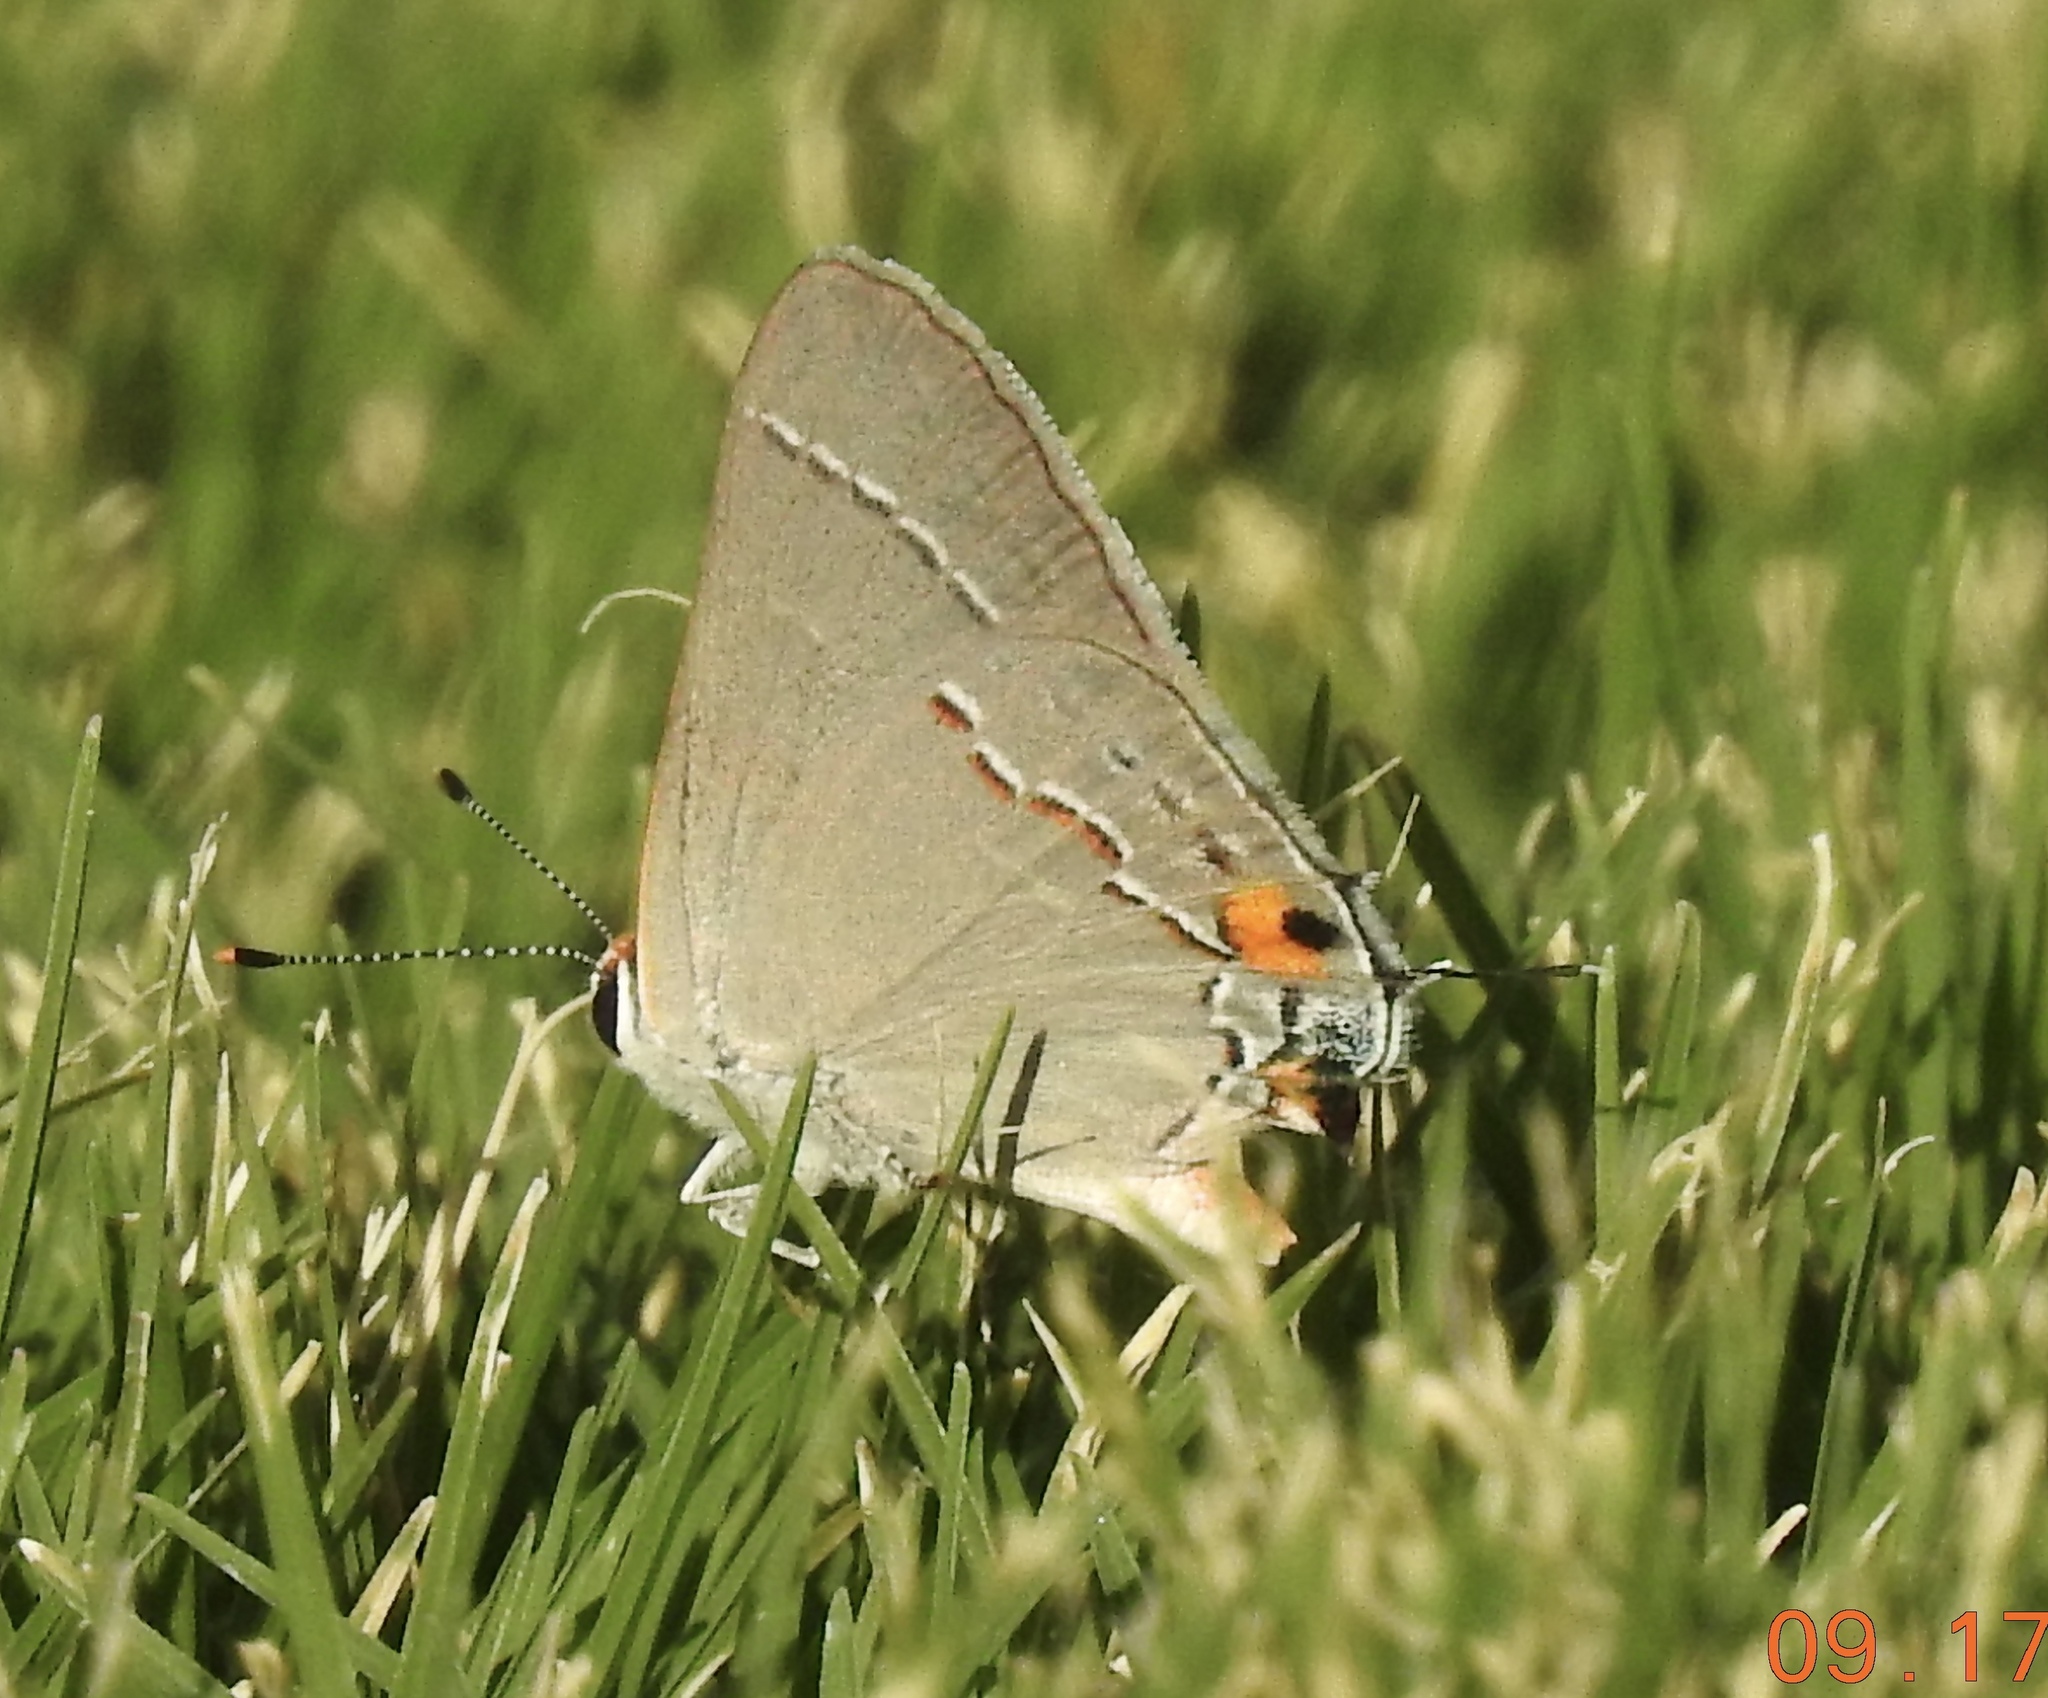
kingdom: Animalia
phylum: Arthropoda
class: Insecta
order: Lepidoptera
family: Lycaenidae
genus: Strymon
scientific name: Strymon melinus
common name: Gray hairstreak
